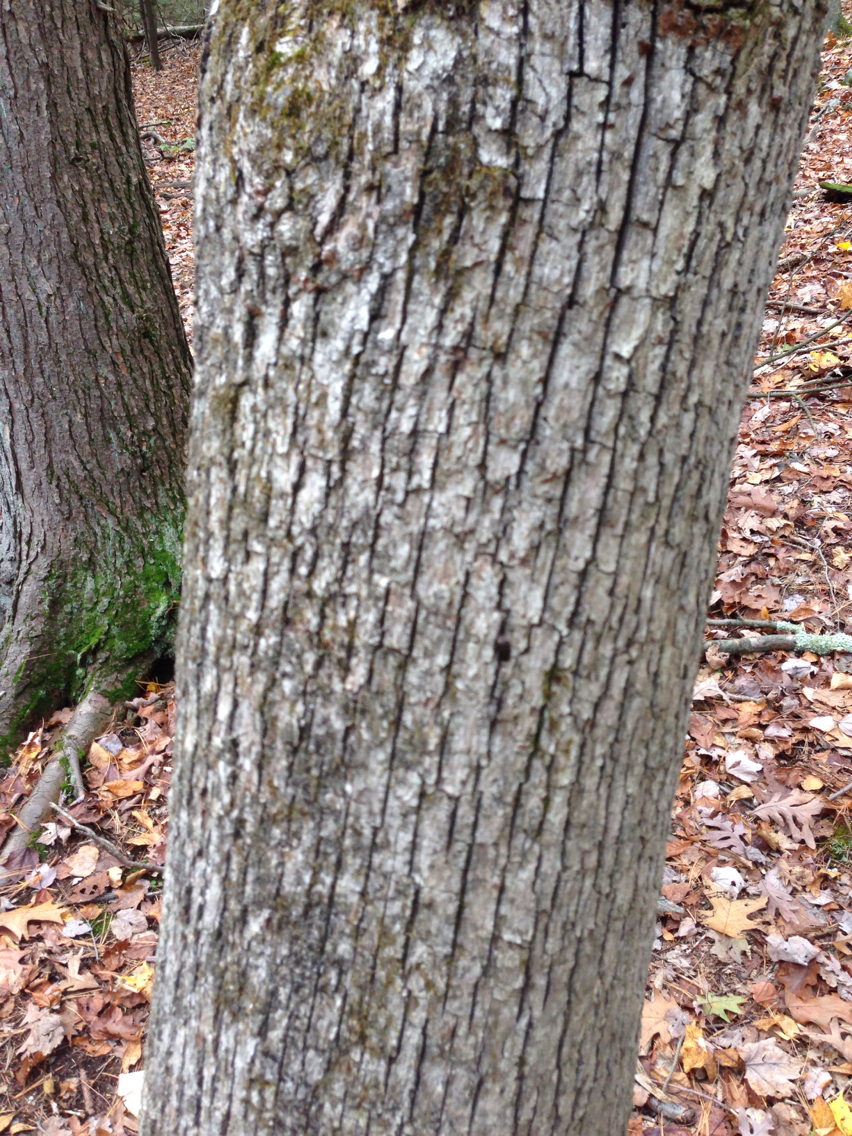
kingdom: Plantae
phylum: Tracheophyta
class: Magnoliopsida
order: Fagales
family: Fagaceae
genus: Quercus
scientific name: Quercus alba
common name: White oak
